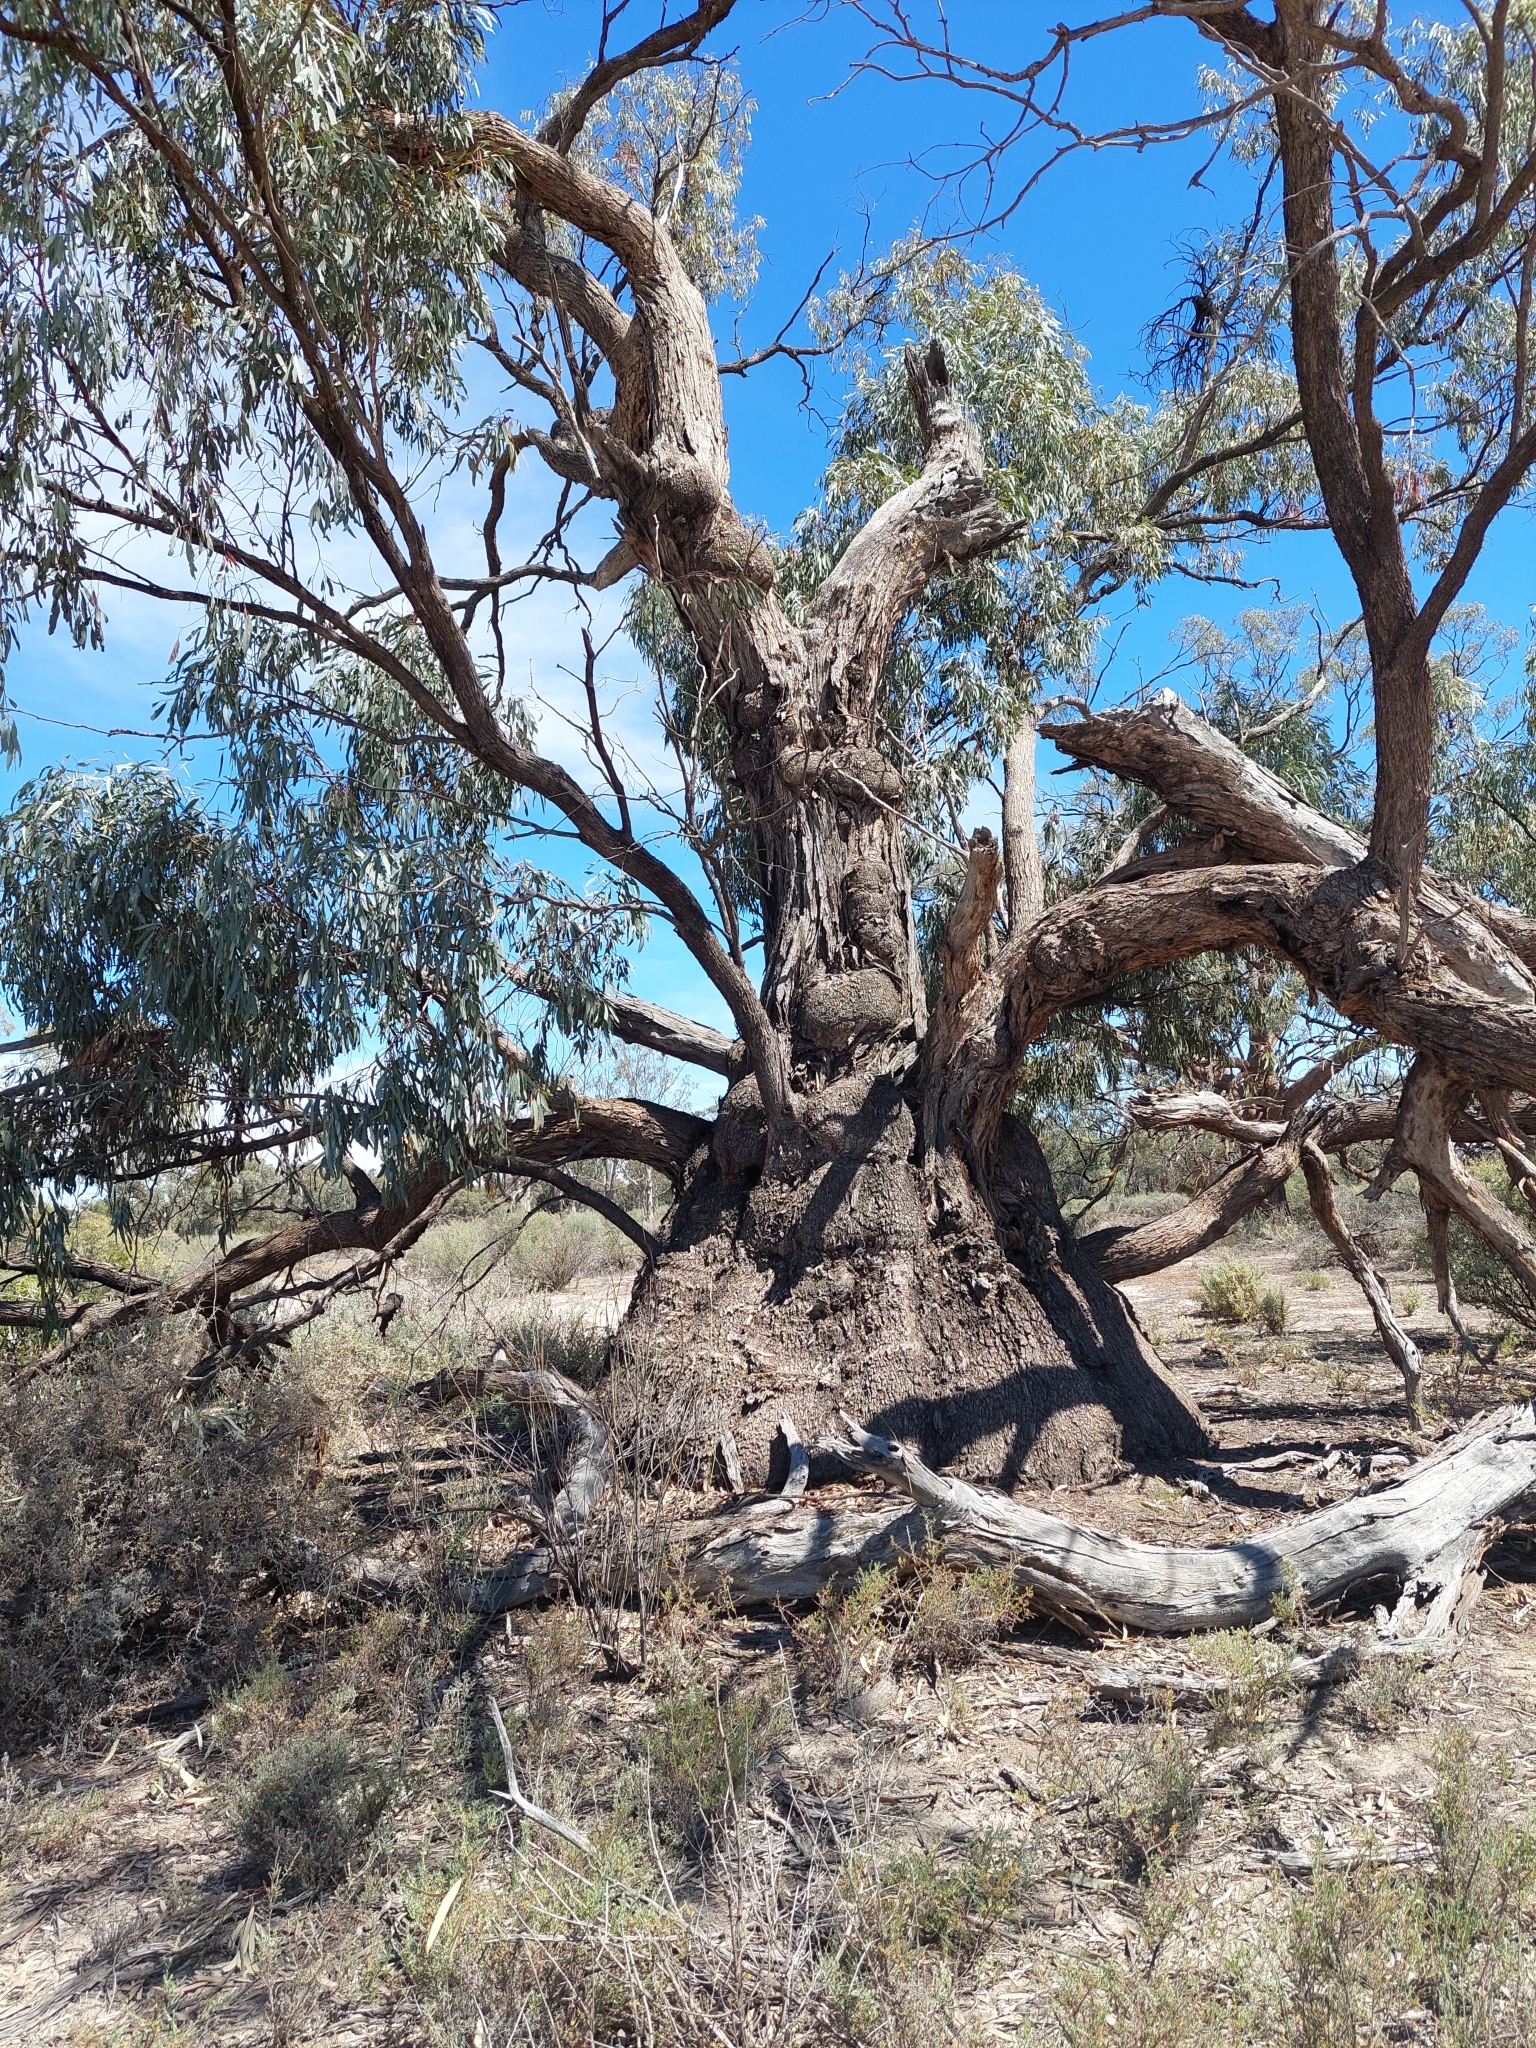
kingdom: Plantae
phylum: Tracheophyta
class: Magnoliopsida
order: Myrtales
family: Myrtaceae
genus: Eucalyptus
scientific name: Eucalyptus largiflorens
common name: Black-box
